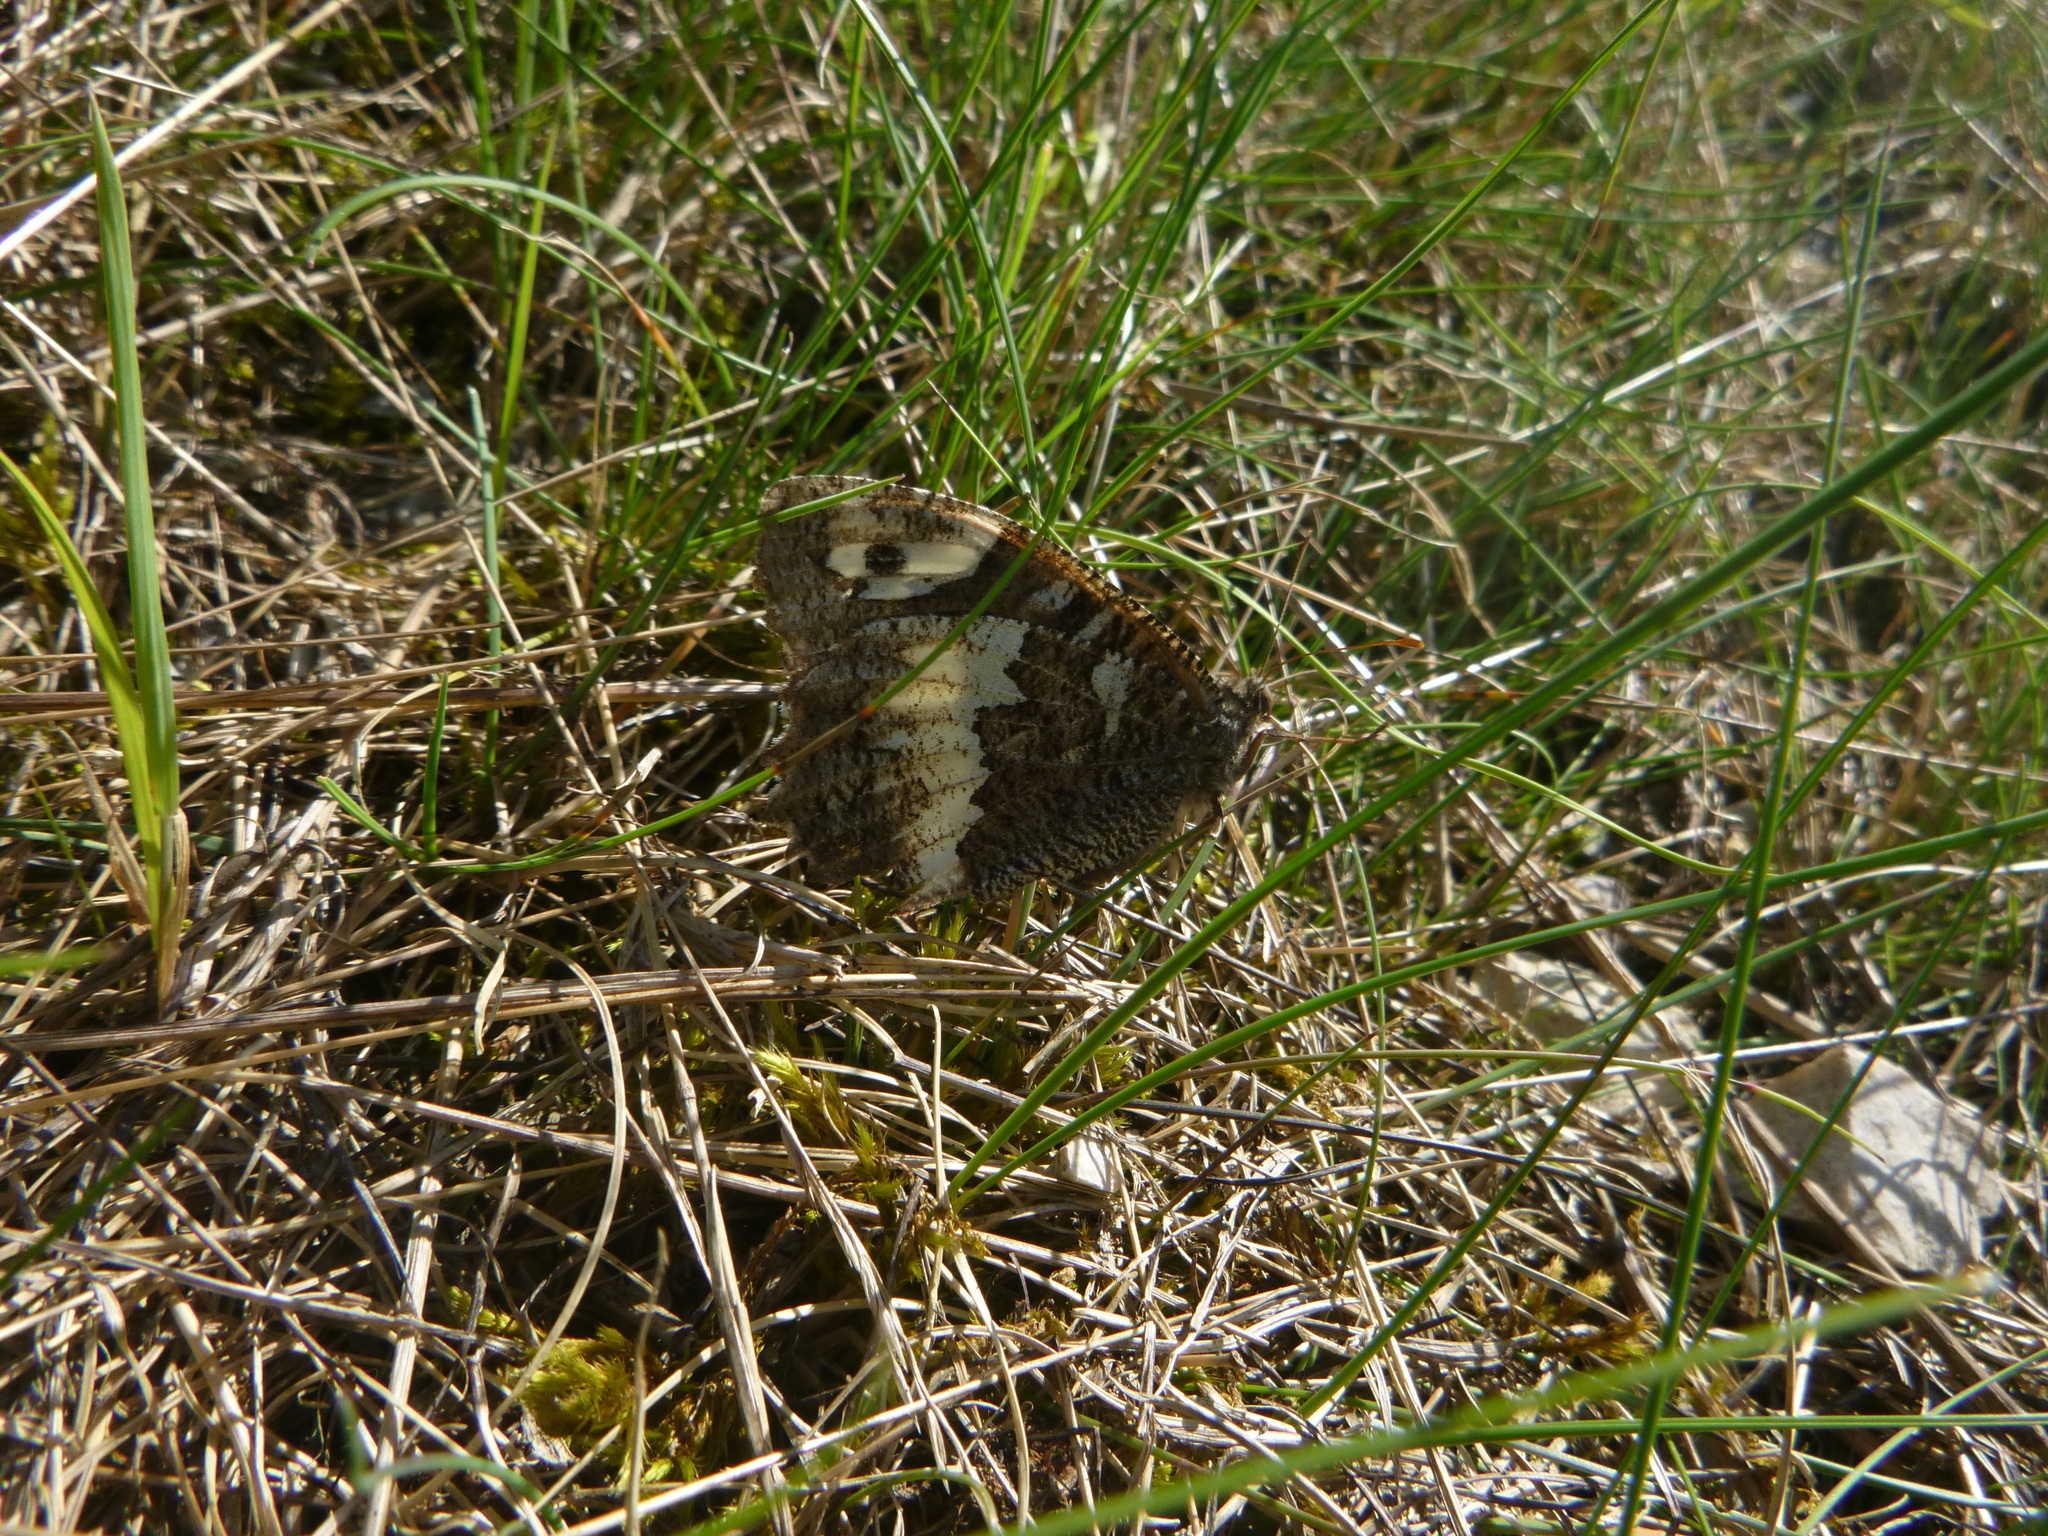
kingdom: Animalia
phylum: Arthropoda
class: Insecta
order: Lepidoptera
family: Lycaenidae
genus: Loweia
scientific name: Loweia tityrus
